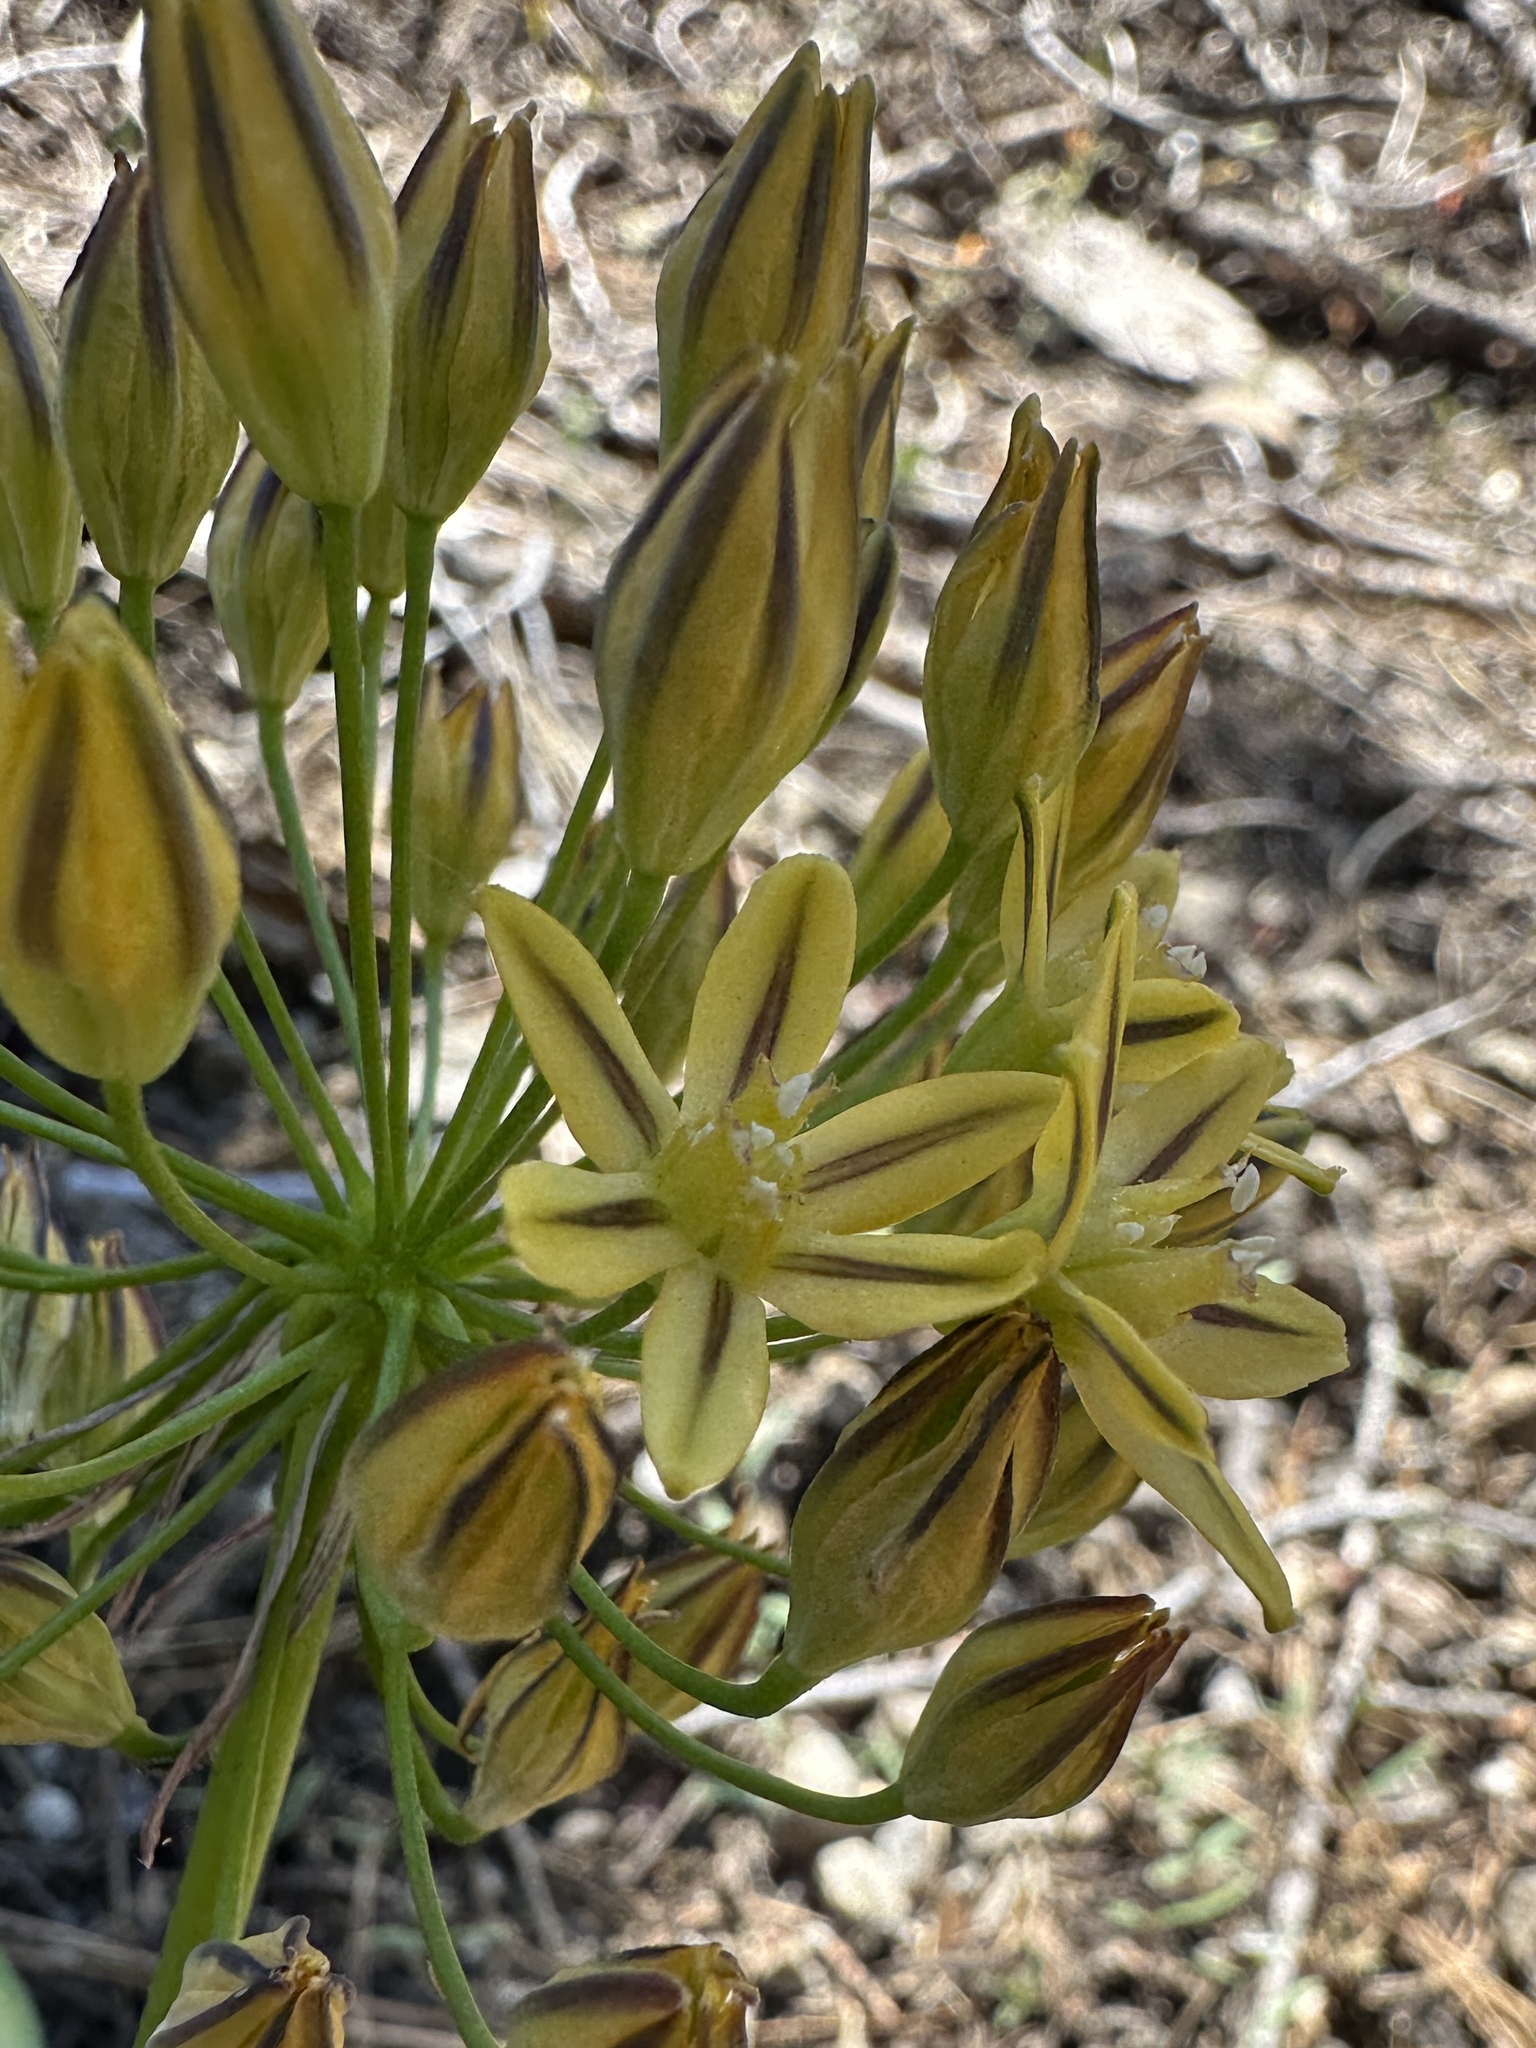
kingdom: Plantae
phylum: Tracheophyta
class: Liliopsida
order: Asparagales
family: Asparagaceae
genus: Triteleia
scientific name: Triteleia ixioides
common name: Yellow-brodiaea
